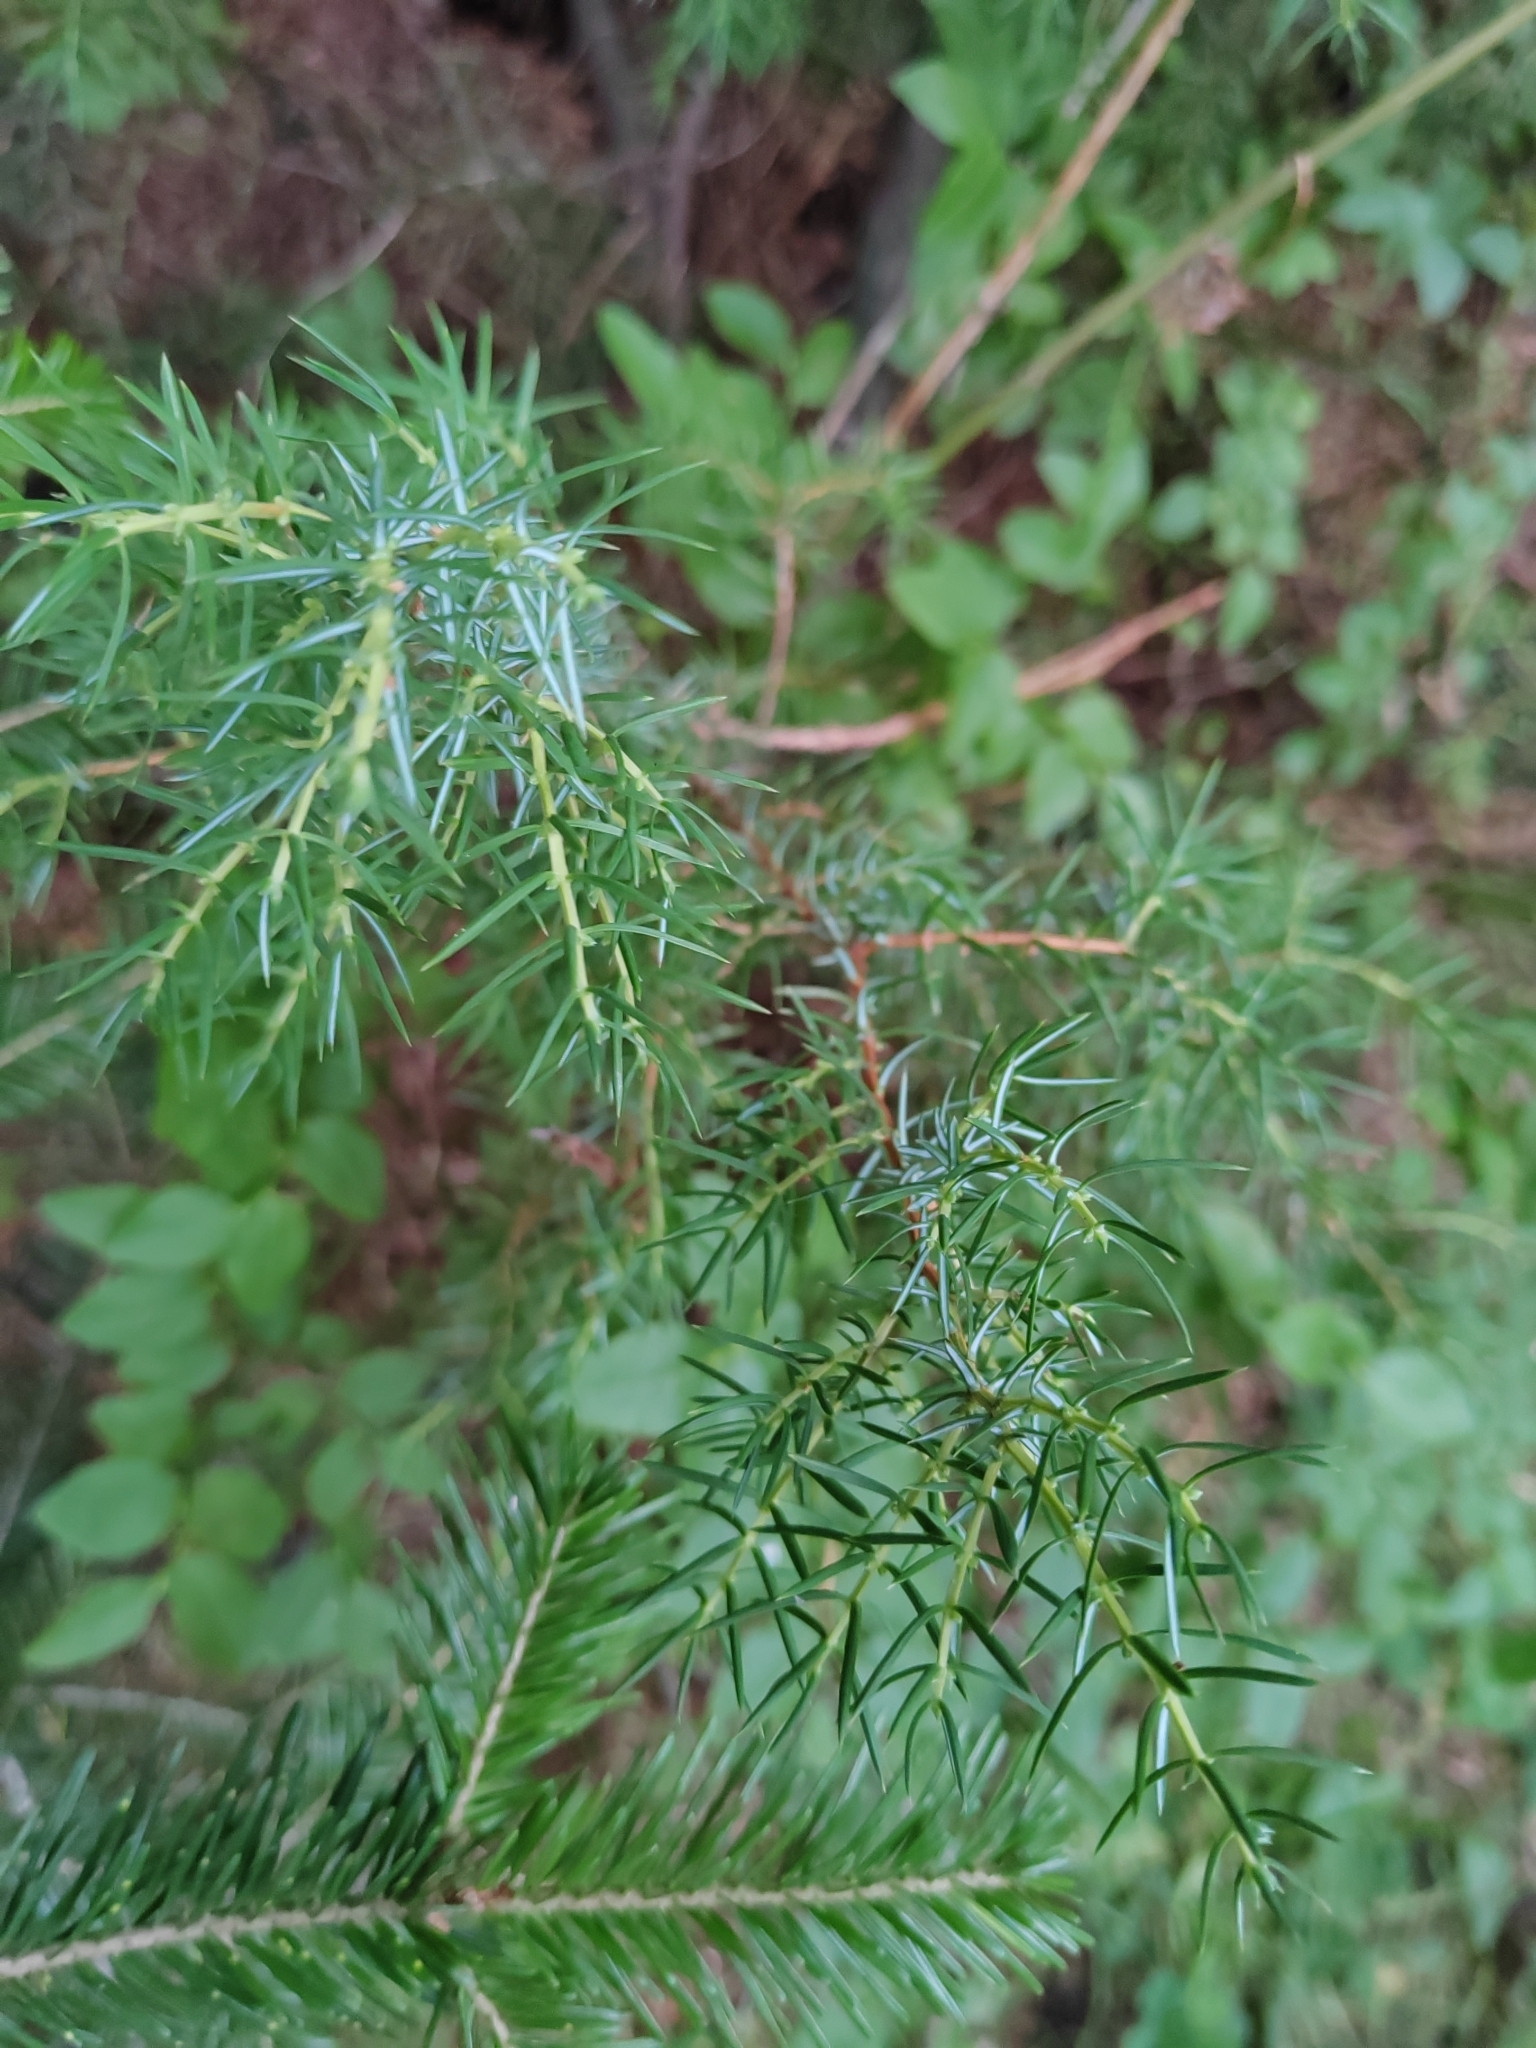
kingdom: Plantae
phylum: Tracheophyta
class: Pinopsida
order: Pinales
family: Cupressaceae
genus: Juniperus
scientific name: Juniperus communis
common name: Common juniper
